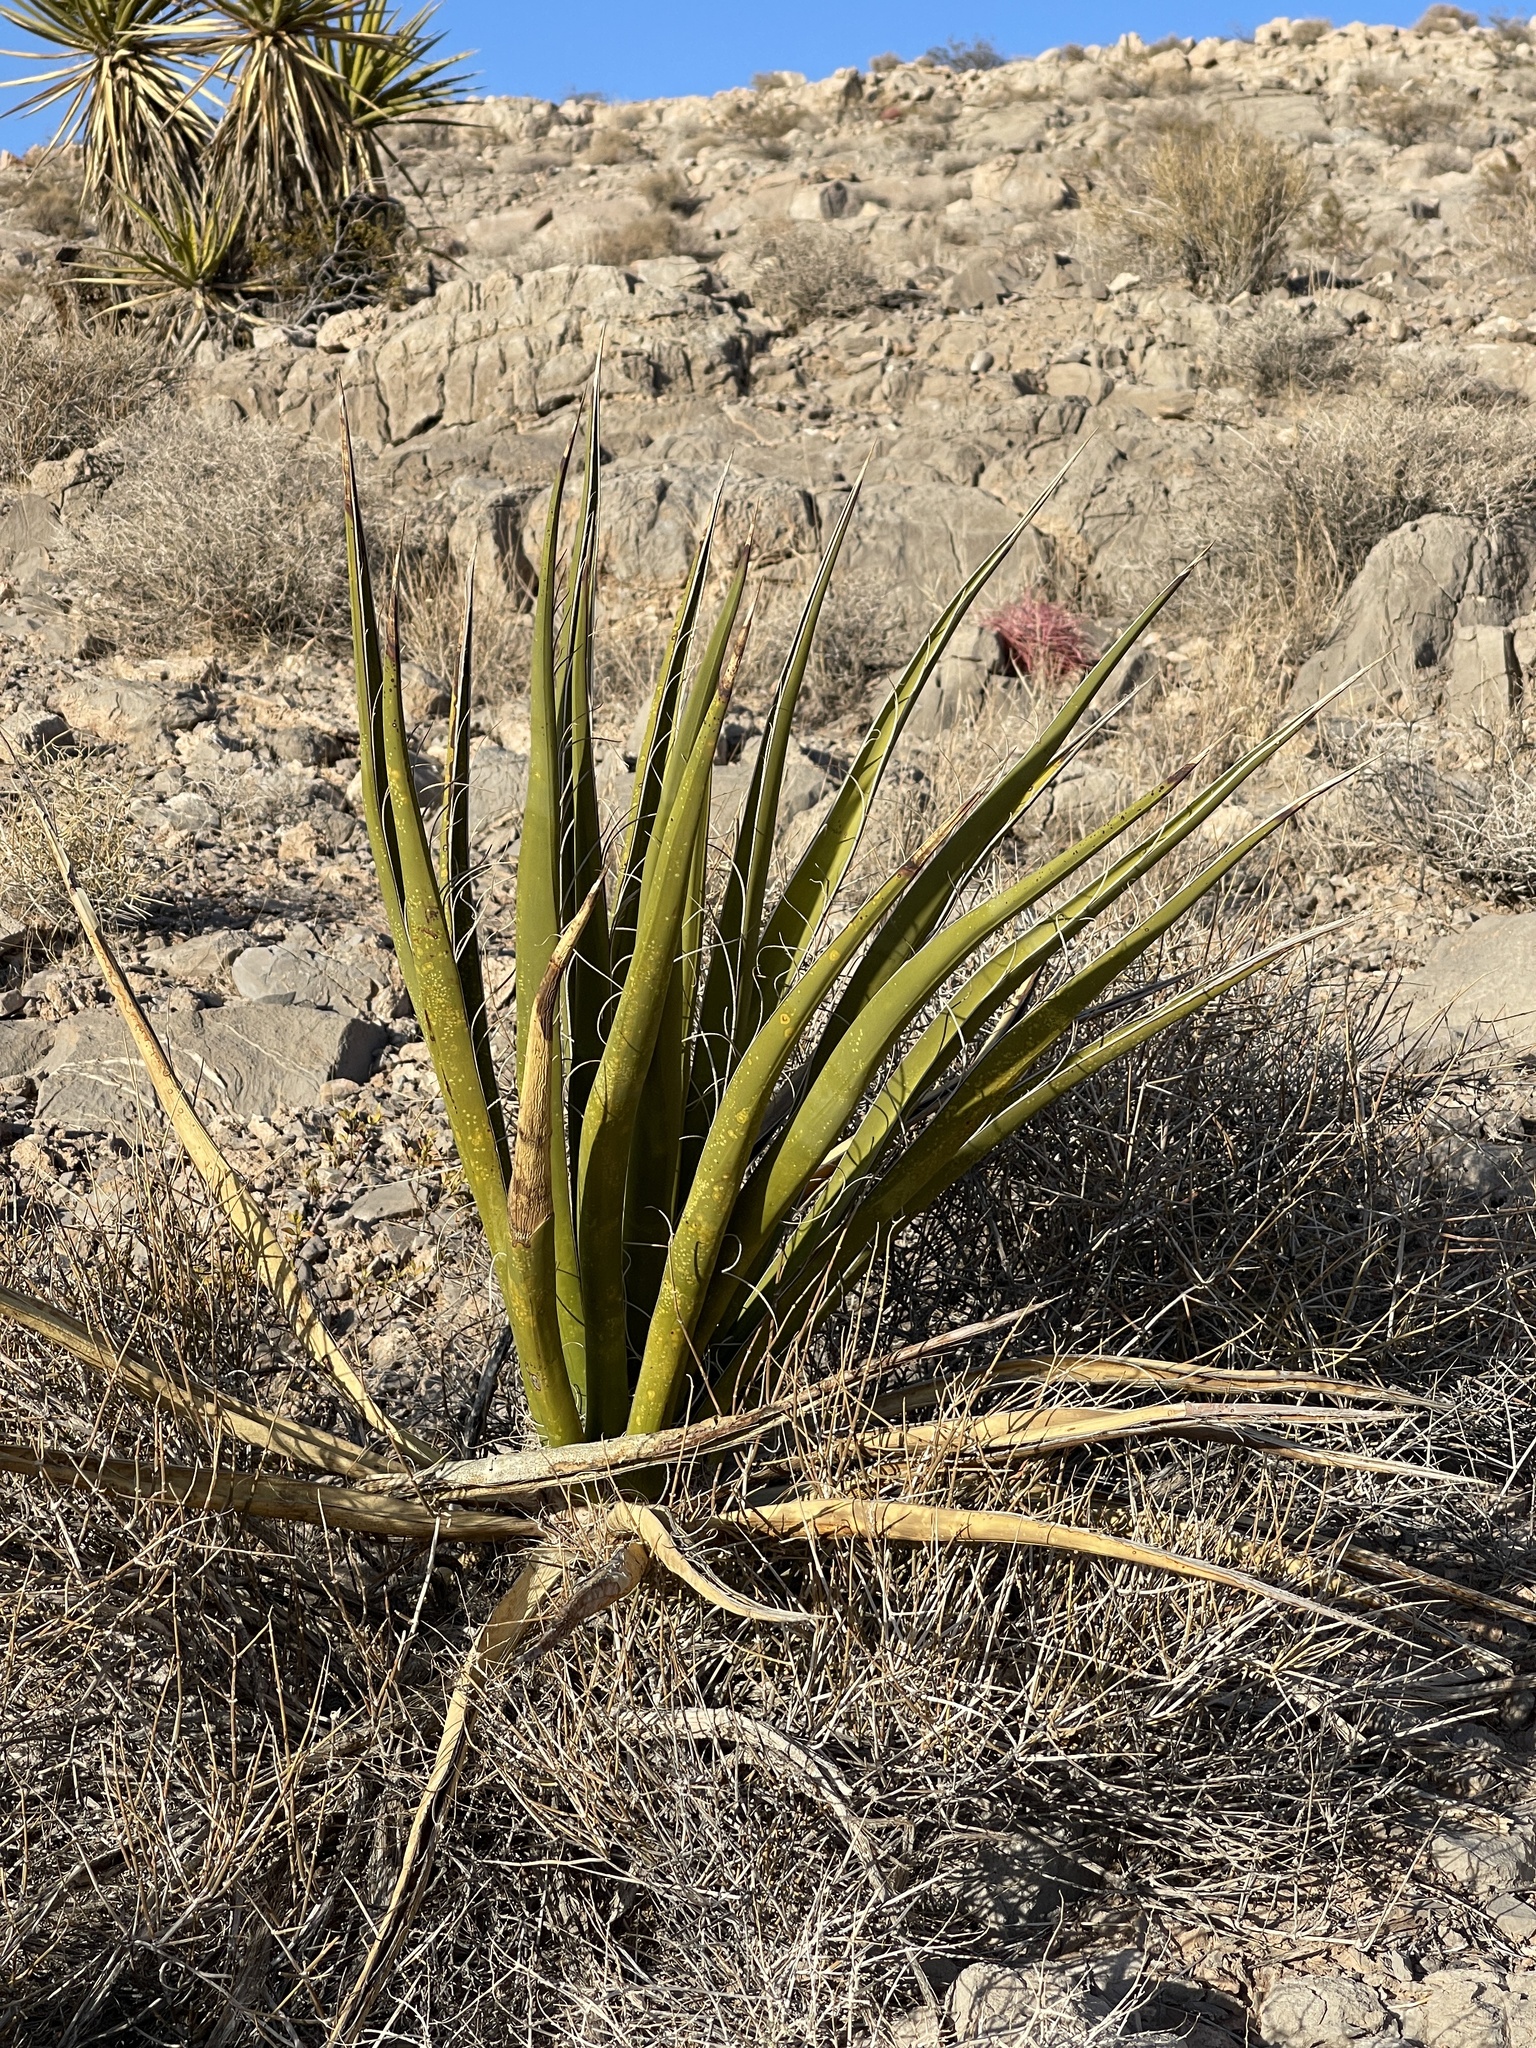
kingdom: Plantae
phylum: Tracheophyta
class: Liliopsida
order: Asparagales
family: Asparagaceae
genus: Yucca
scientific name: Yucca schidigera
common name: Mojave yucca
